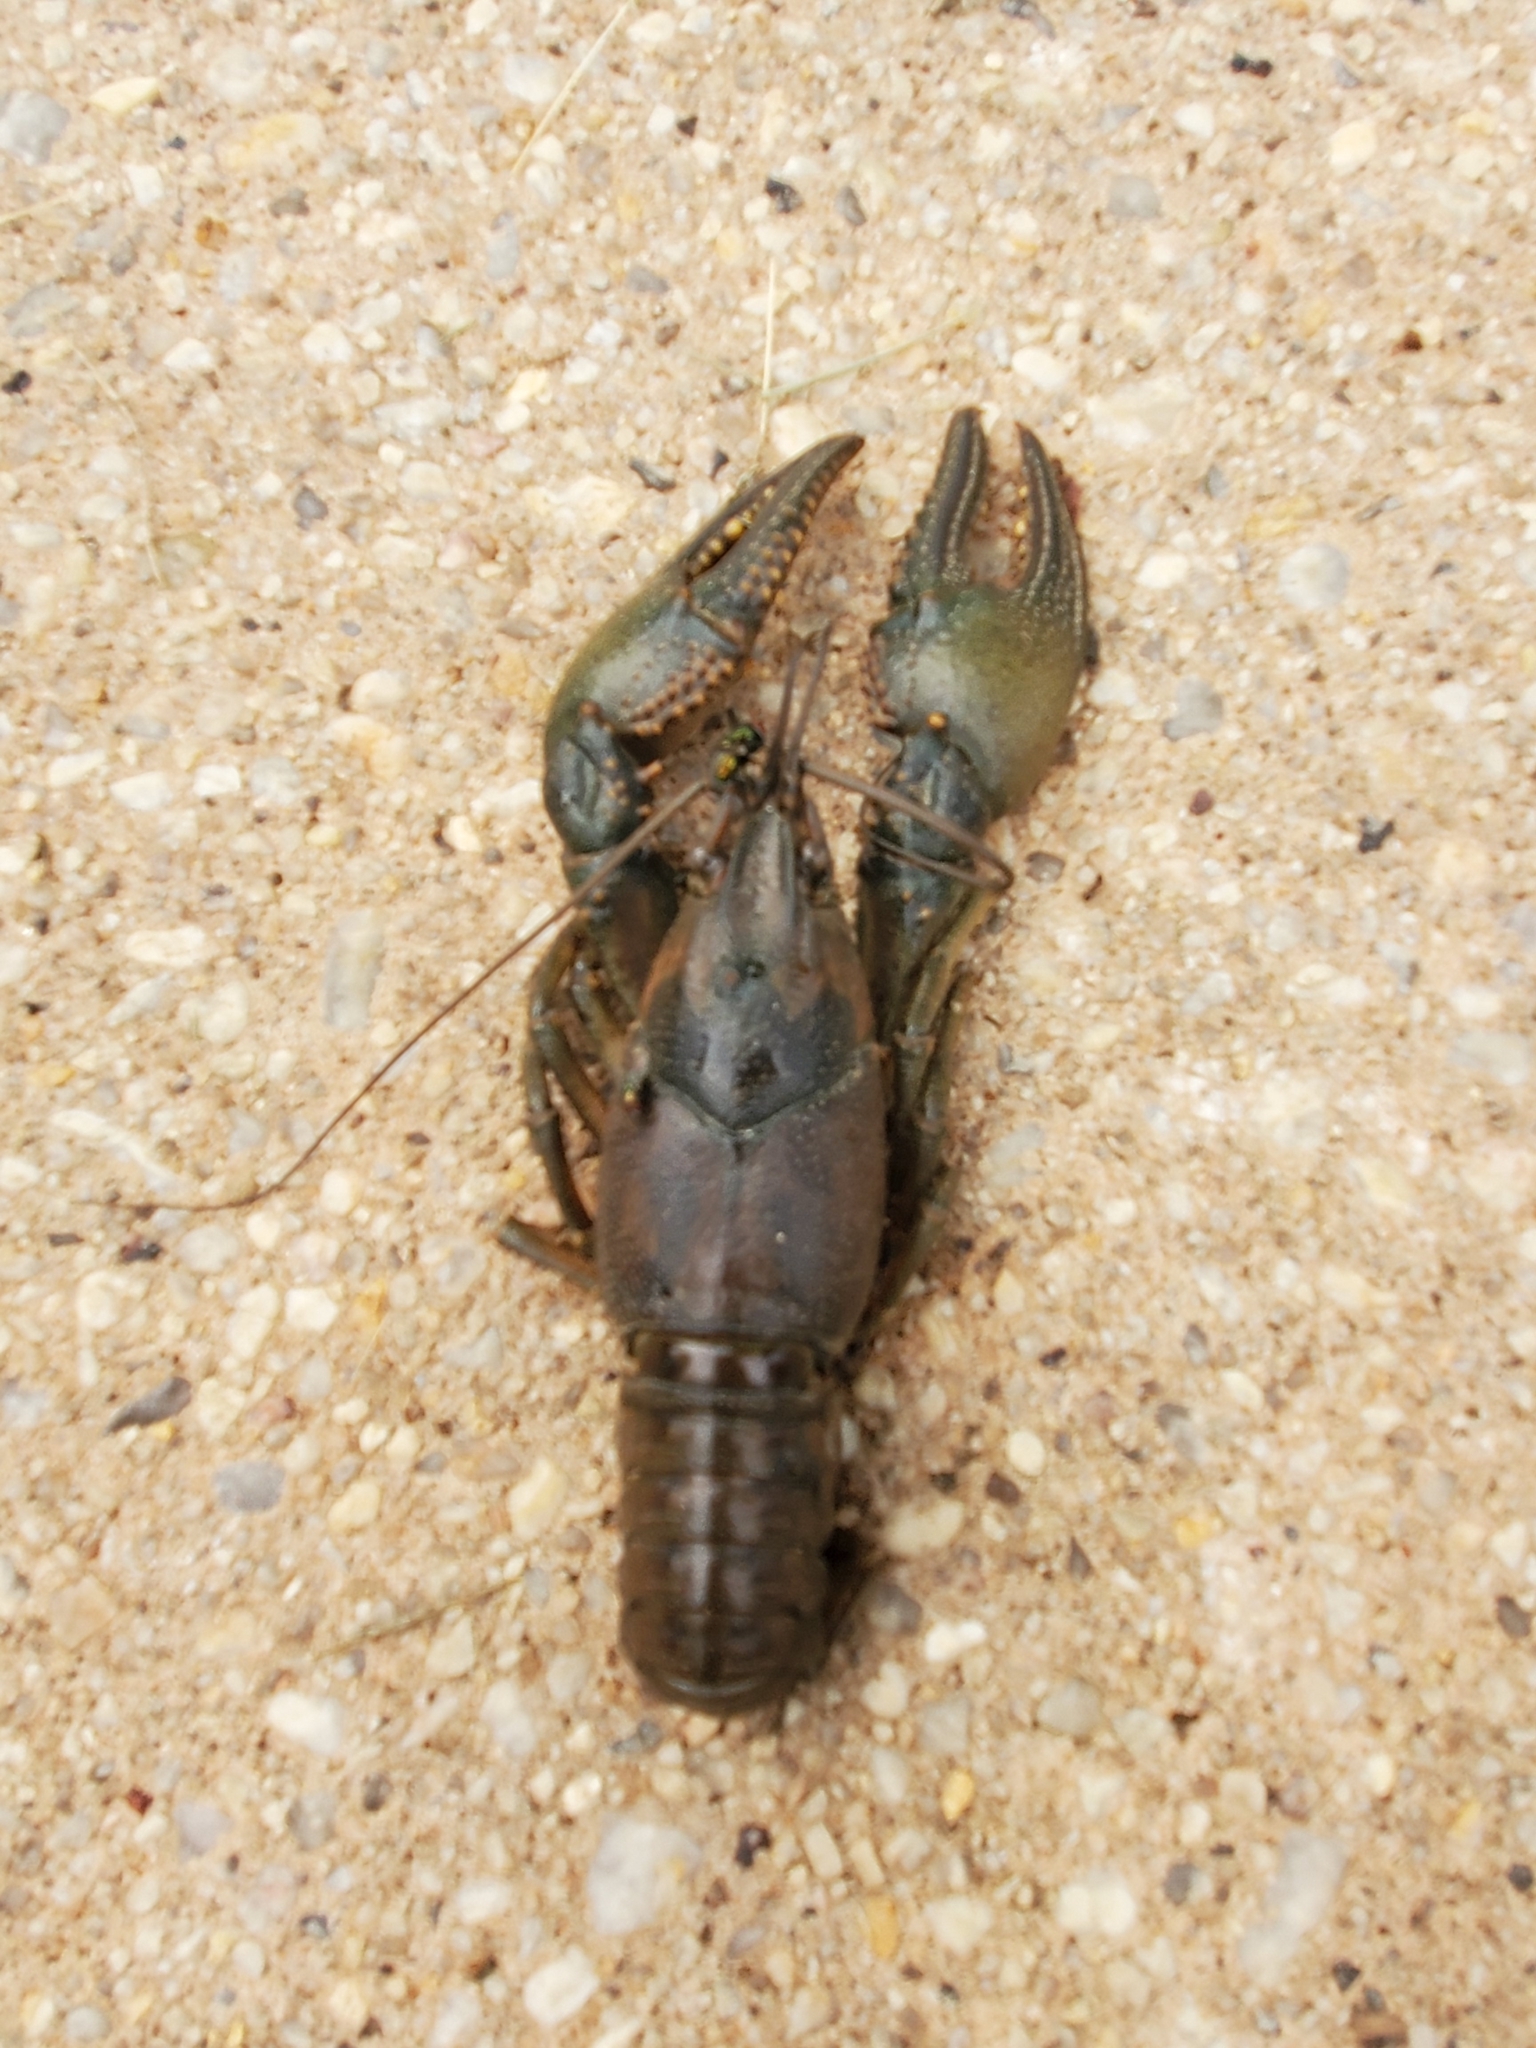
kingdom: Animalia
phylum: Arthropoda
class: Malacostraca
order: Decapoda
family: Cambaridae
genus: Faxonius
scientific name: Faxonius virilis
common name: Virile crayfish
